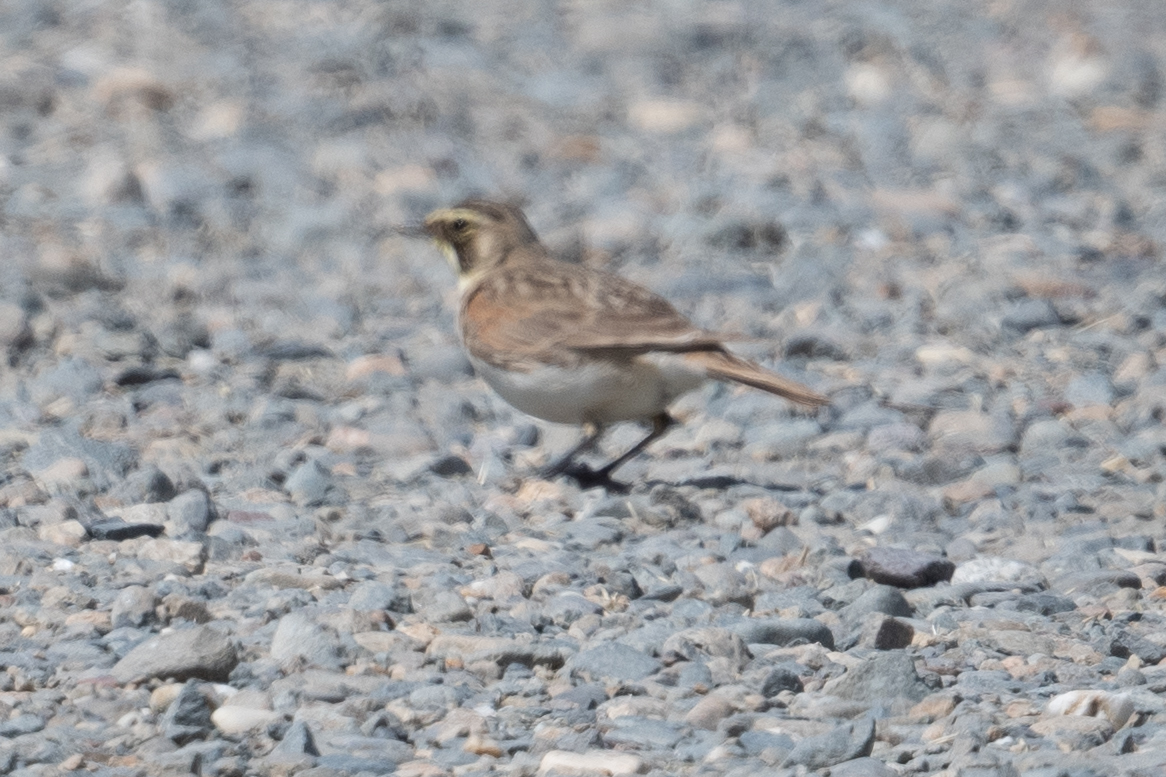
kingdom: Animalia
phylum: Chordata
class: Aves
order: Passeriformes
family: Alaudidae
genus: Eremophila
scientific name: Eremophila alpestris
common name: Horned lark
